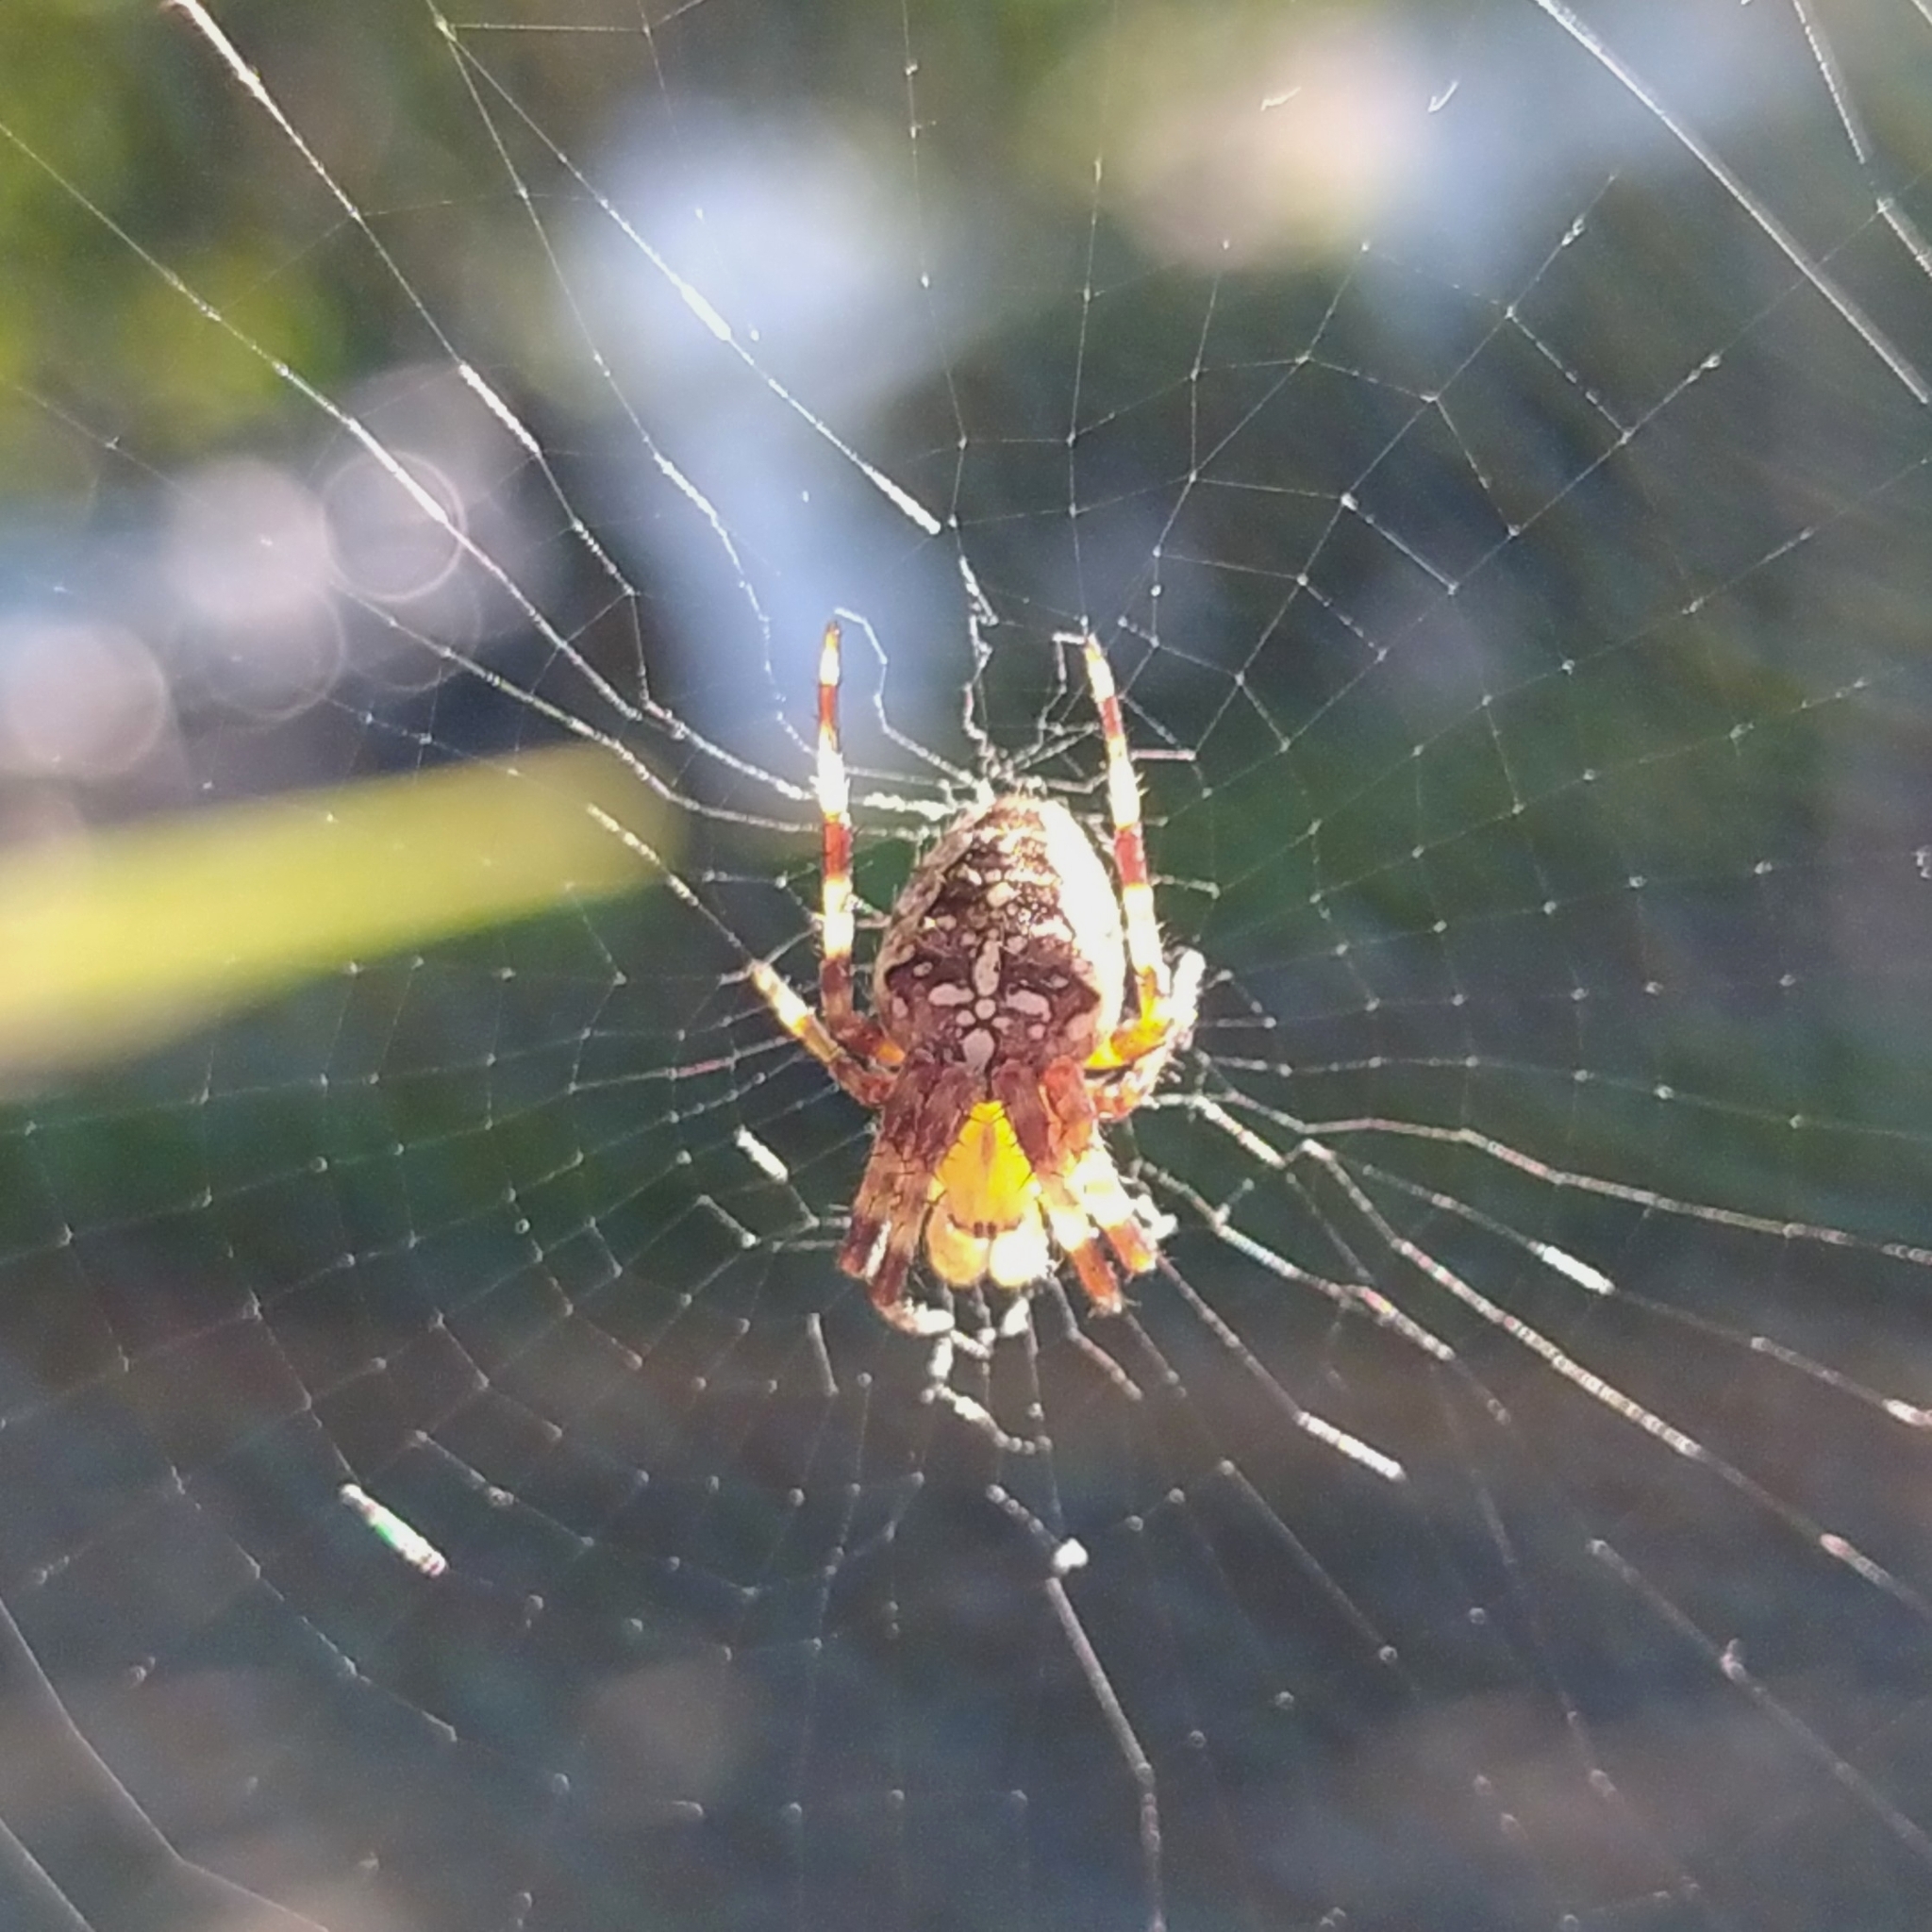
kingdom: Animalia
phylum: Arthropoda
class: Arachnida
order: Araneae
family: Araneidae
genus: Araneus
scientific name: Araneus diadematus
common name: Cross orbweaver
